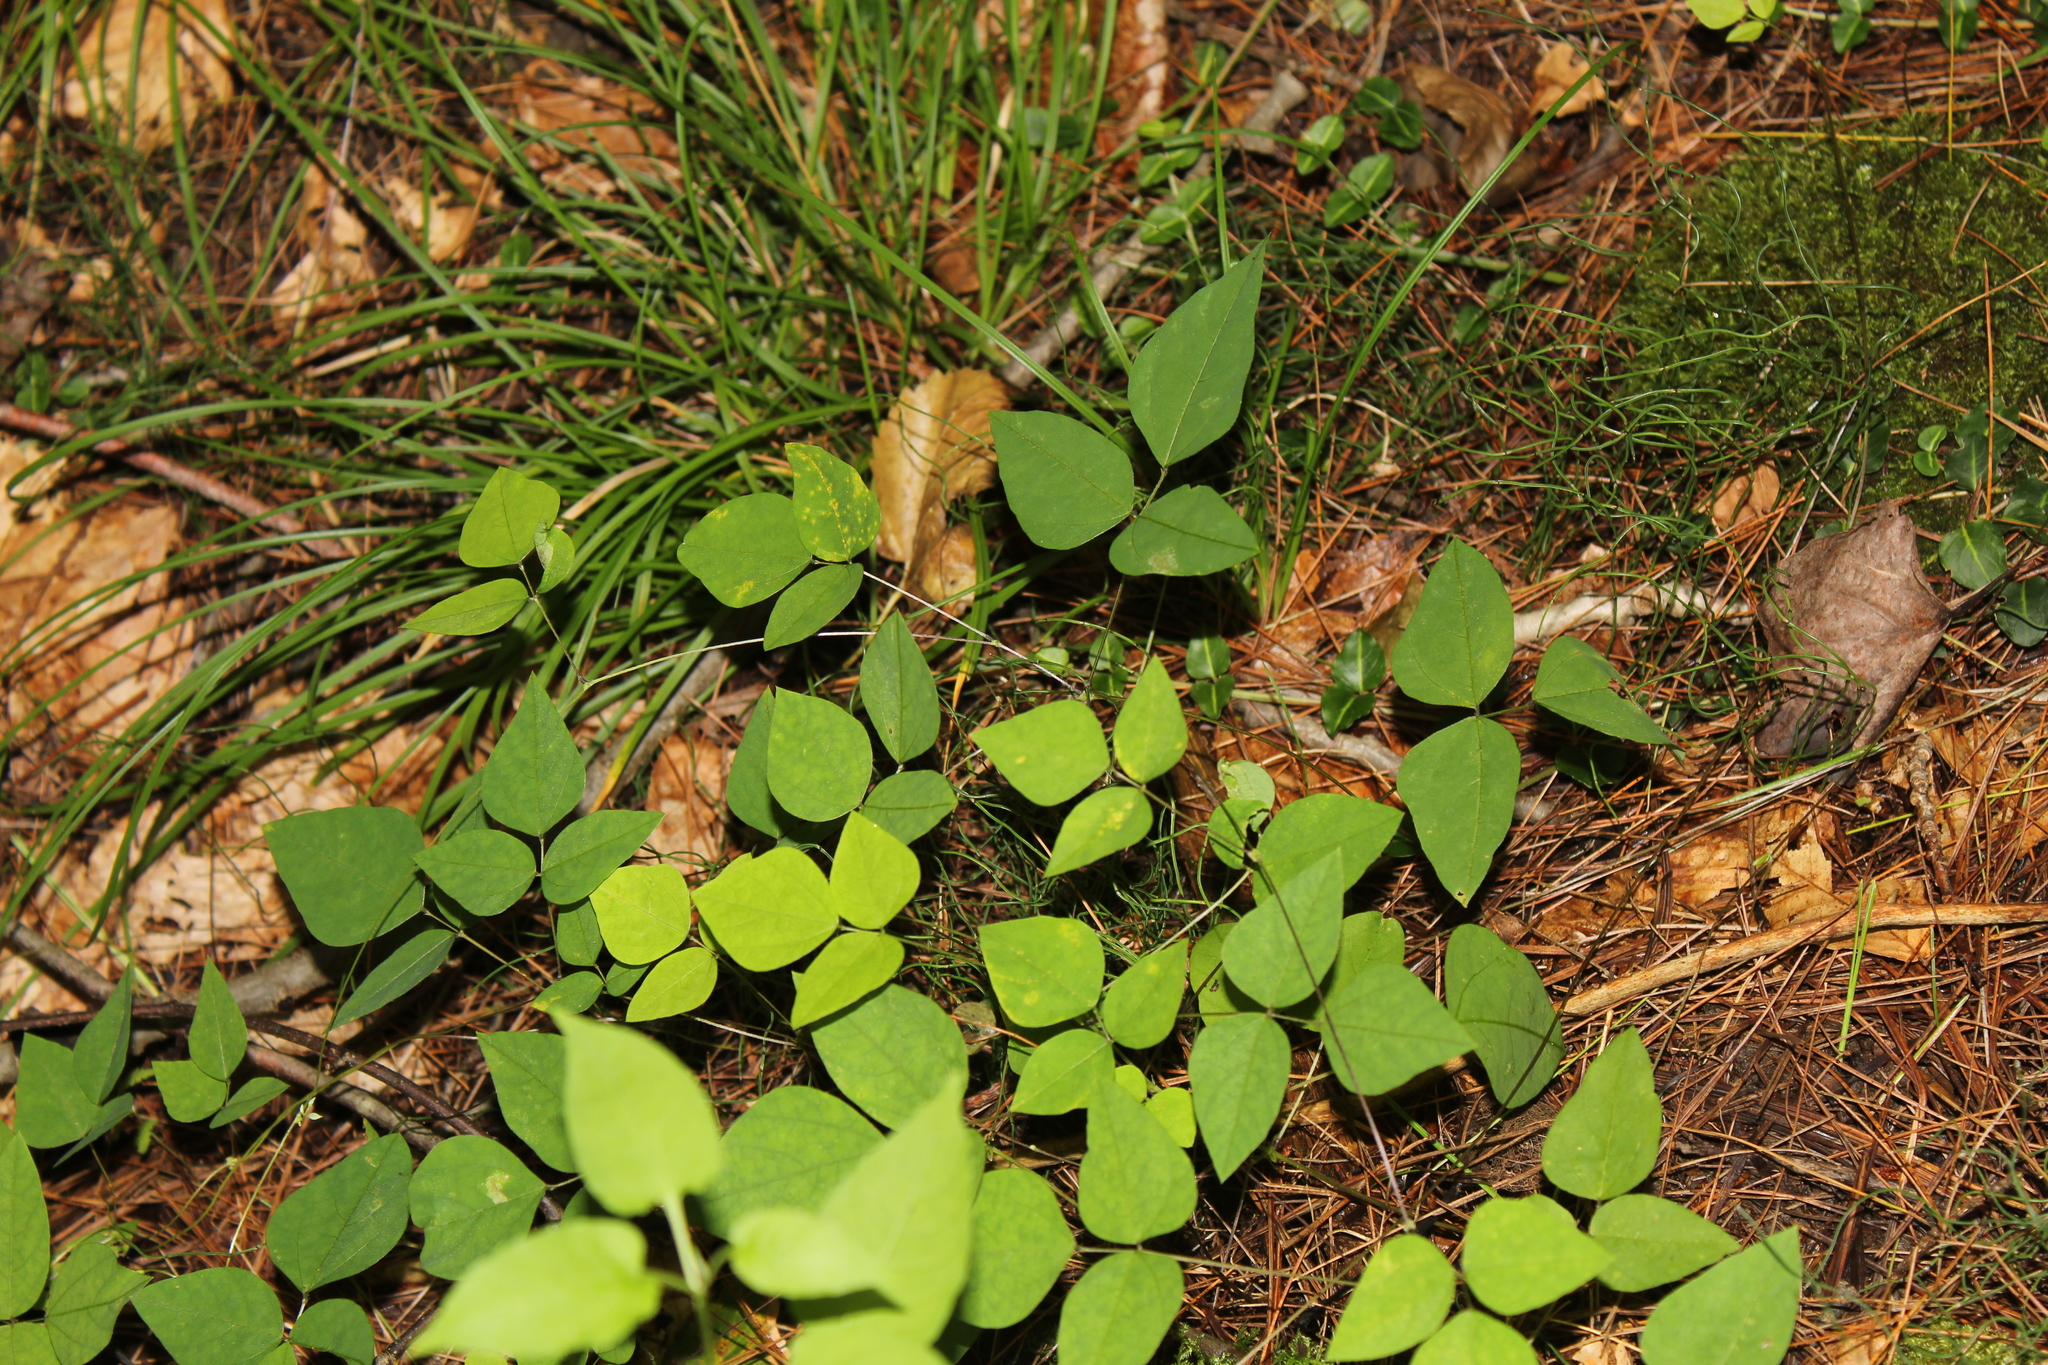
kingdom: Plantae
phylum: Tracheophyta
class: Magnoliopsida
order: Fabales
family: Fabaceae
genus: Amphicarpaea
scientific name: Amphicarpaea bracteata
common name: American hog peanut
